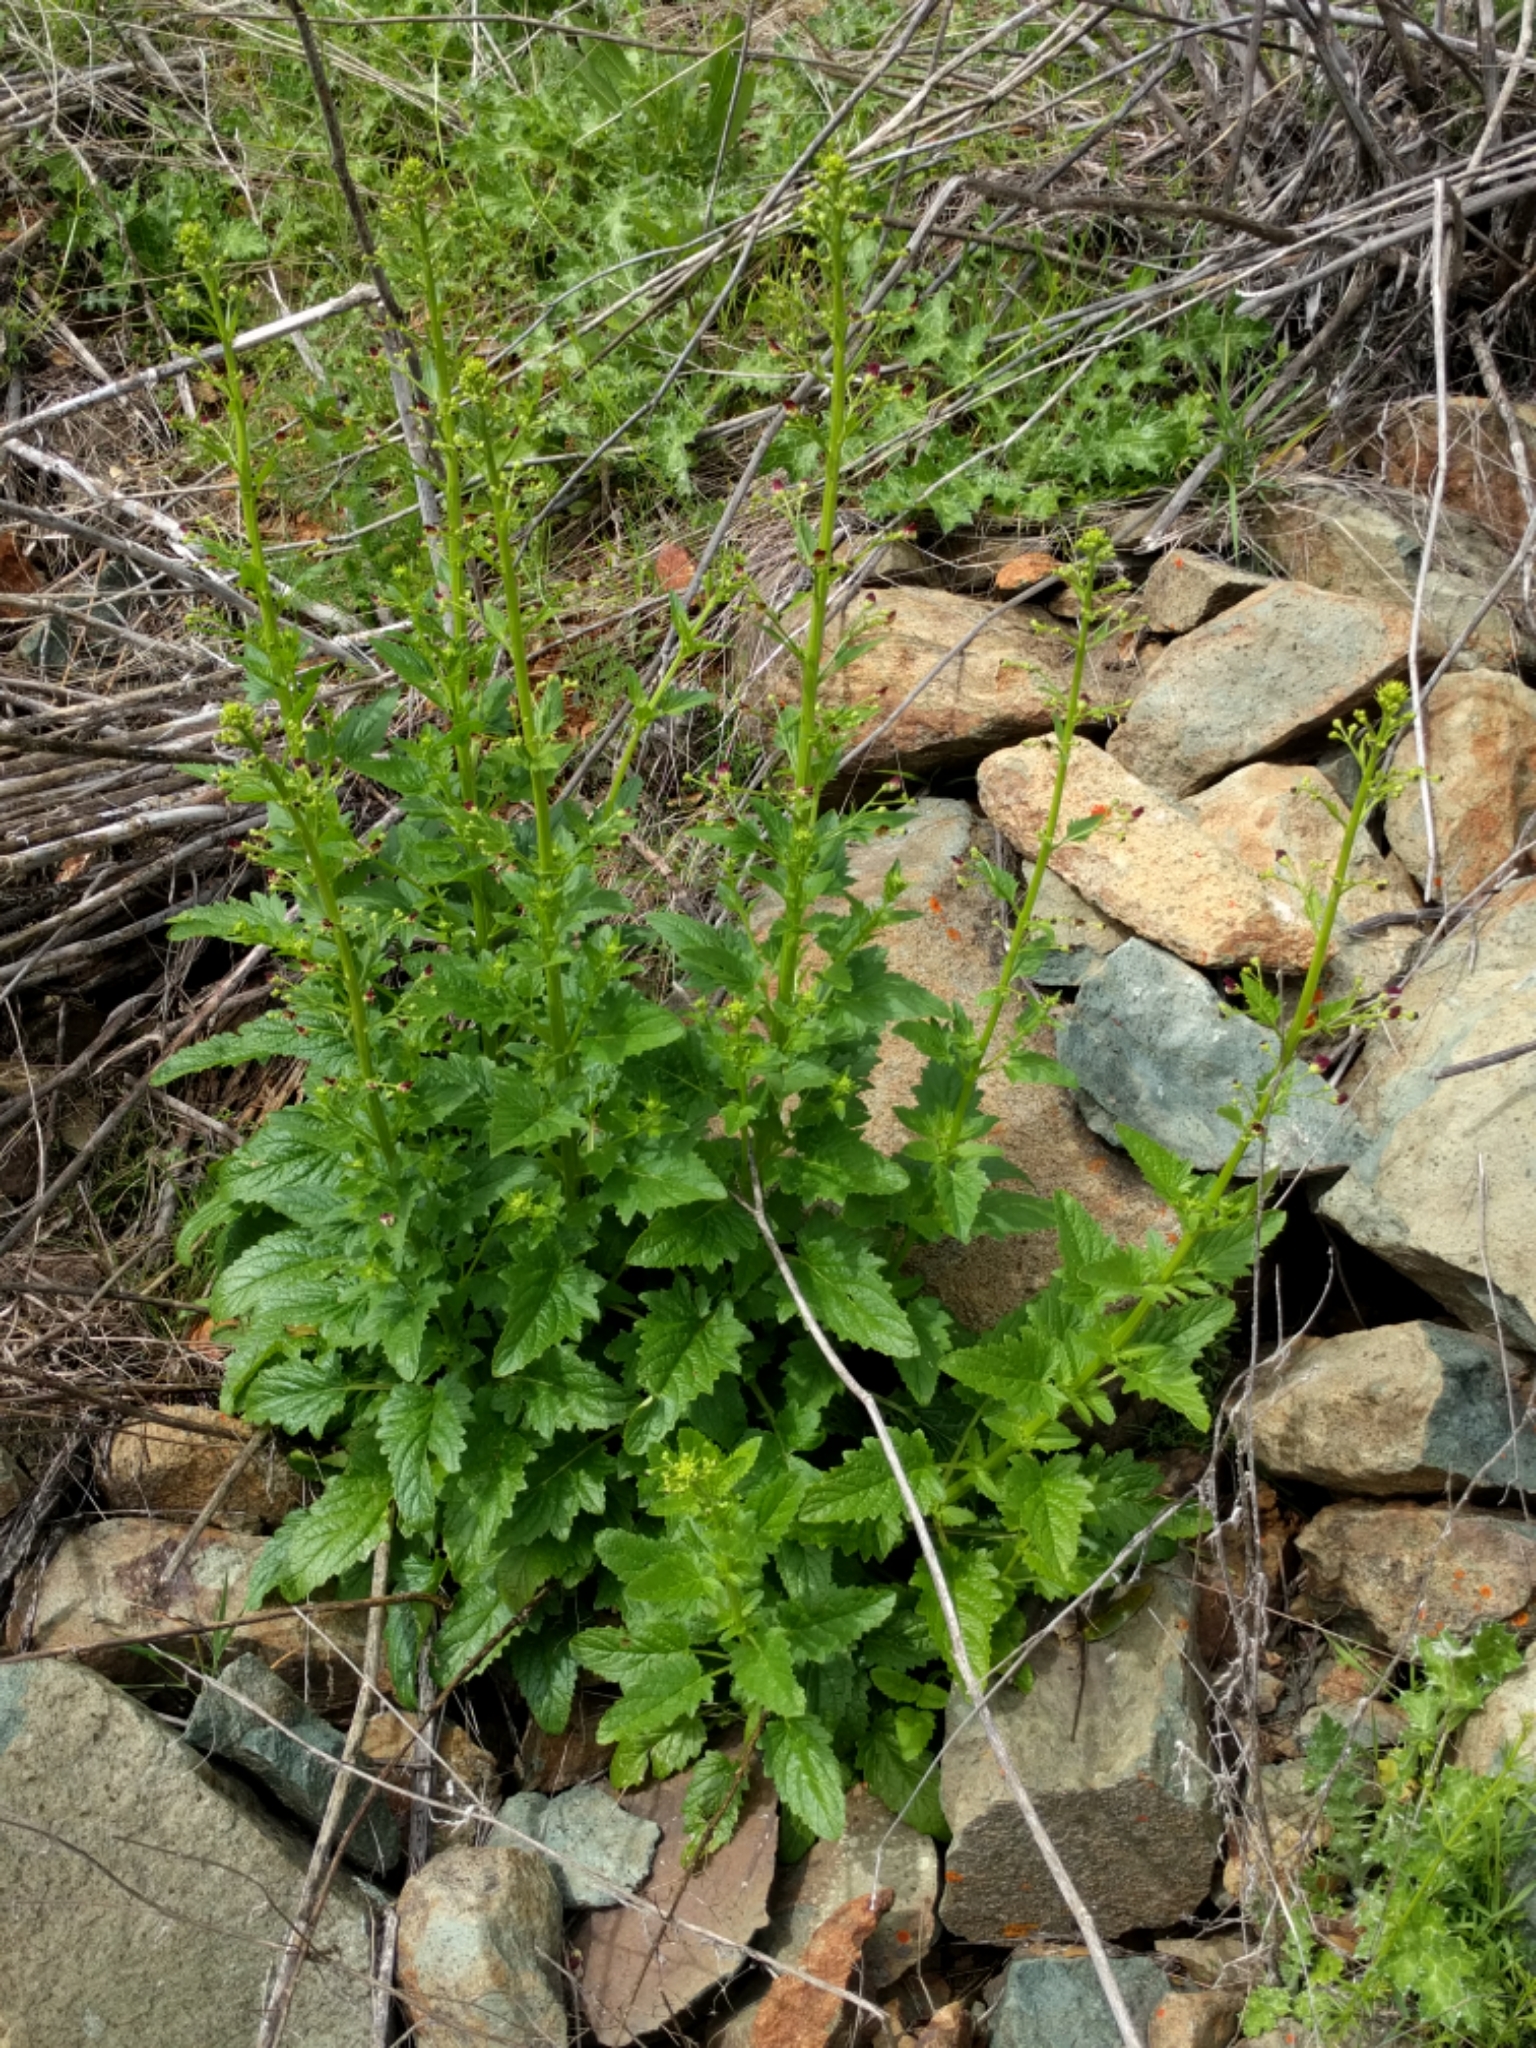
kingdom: Plantae
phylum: Tracheophyta
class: Magnoliopsida
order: Lamiales
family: Scrophulariaceae
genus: Scrophularia
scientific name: Scrophularia californica
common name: California figwort
